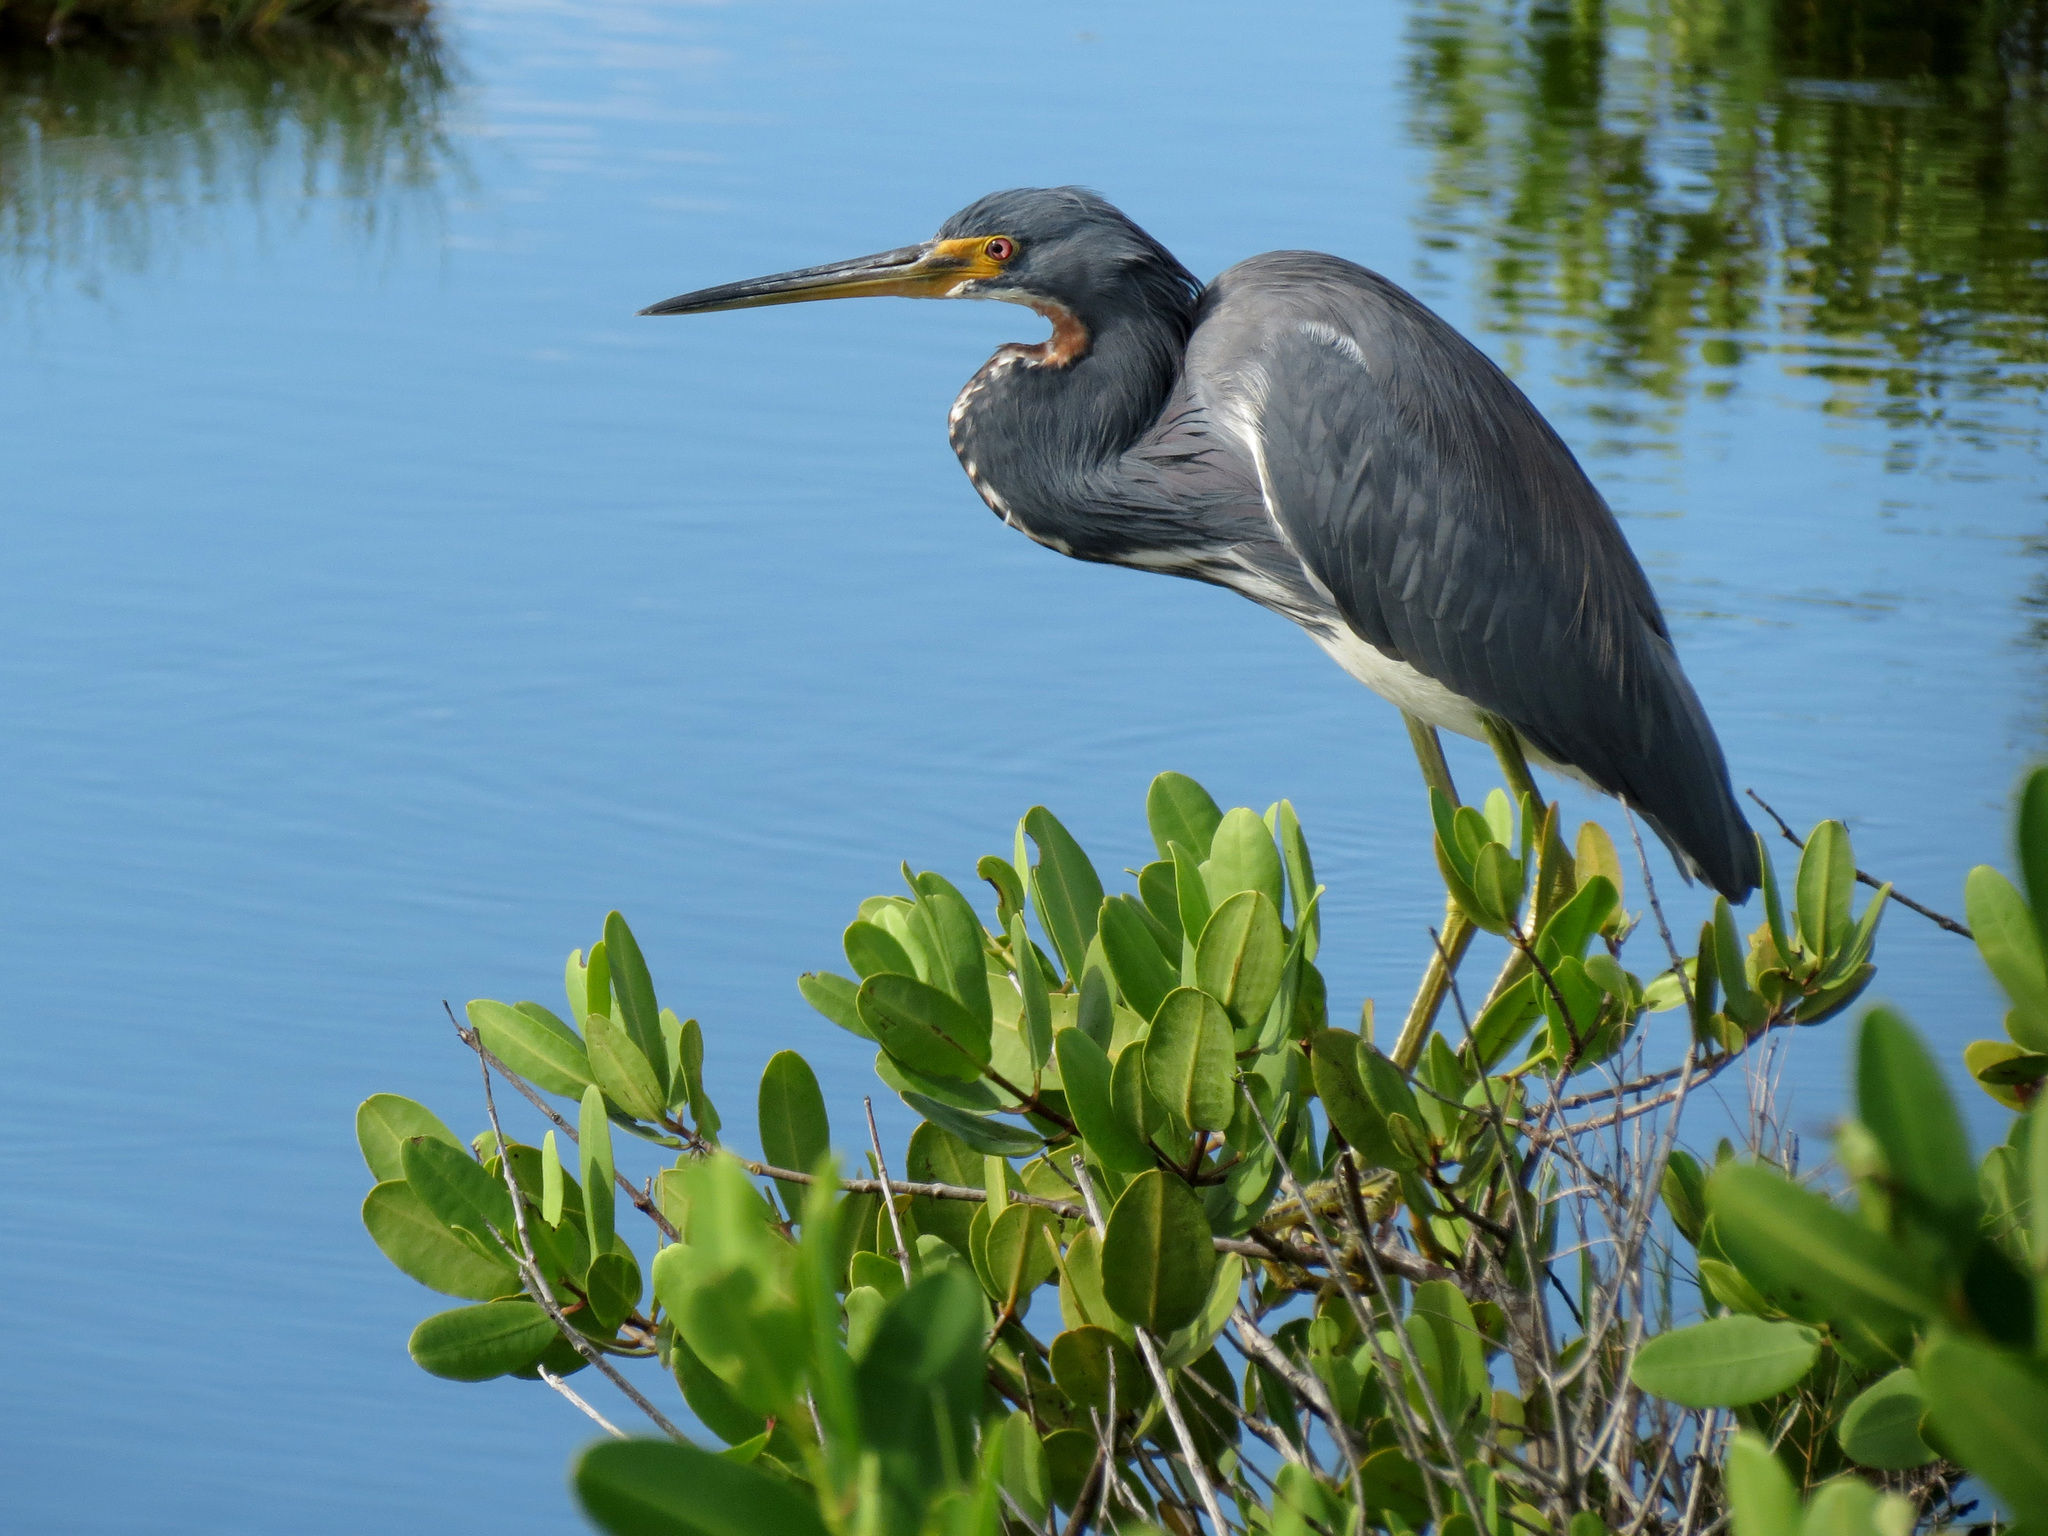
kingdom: Animalia
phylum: Chordata
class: Aves
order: Pelecaniformes
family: Ardeidae
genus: Egretta
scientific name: Egretta tricolor
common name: Tricolored heron
